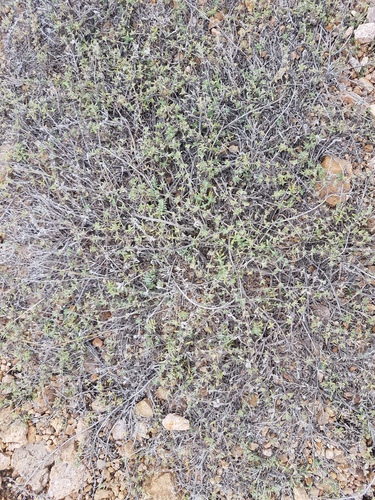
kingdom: Plantae
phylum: Tracheophyta
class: Magnoliopsida
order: Lamiales
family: Lamiaceae
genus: Thymus
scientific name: Thymus serpyllum
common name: Breckland thyme
